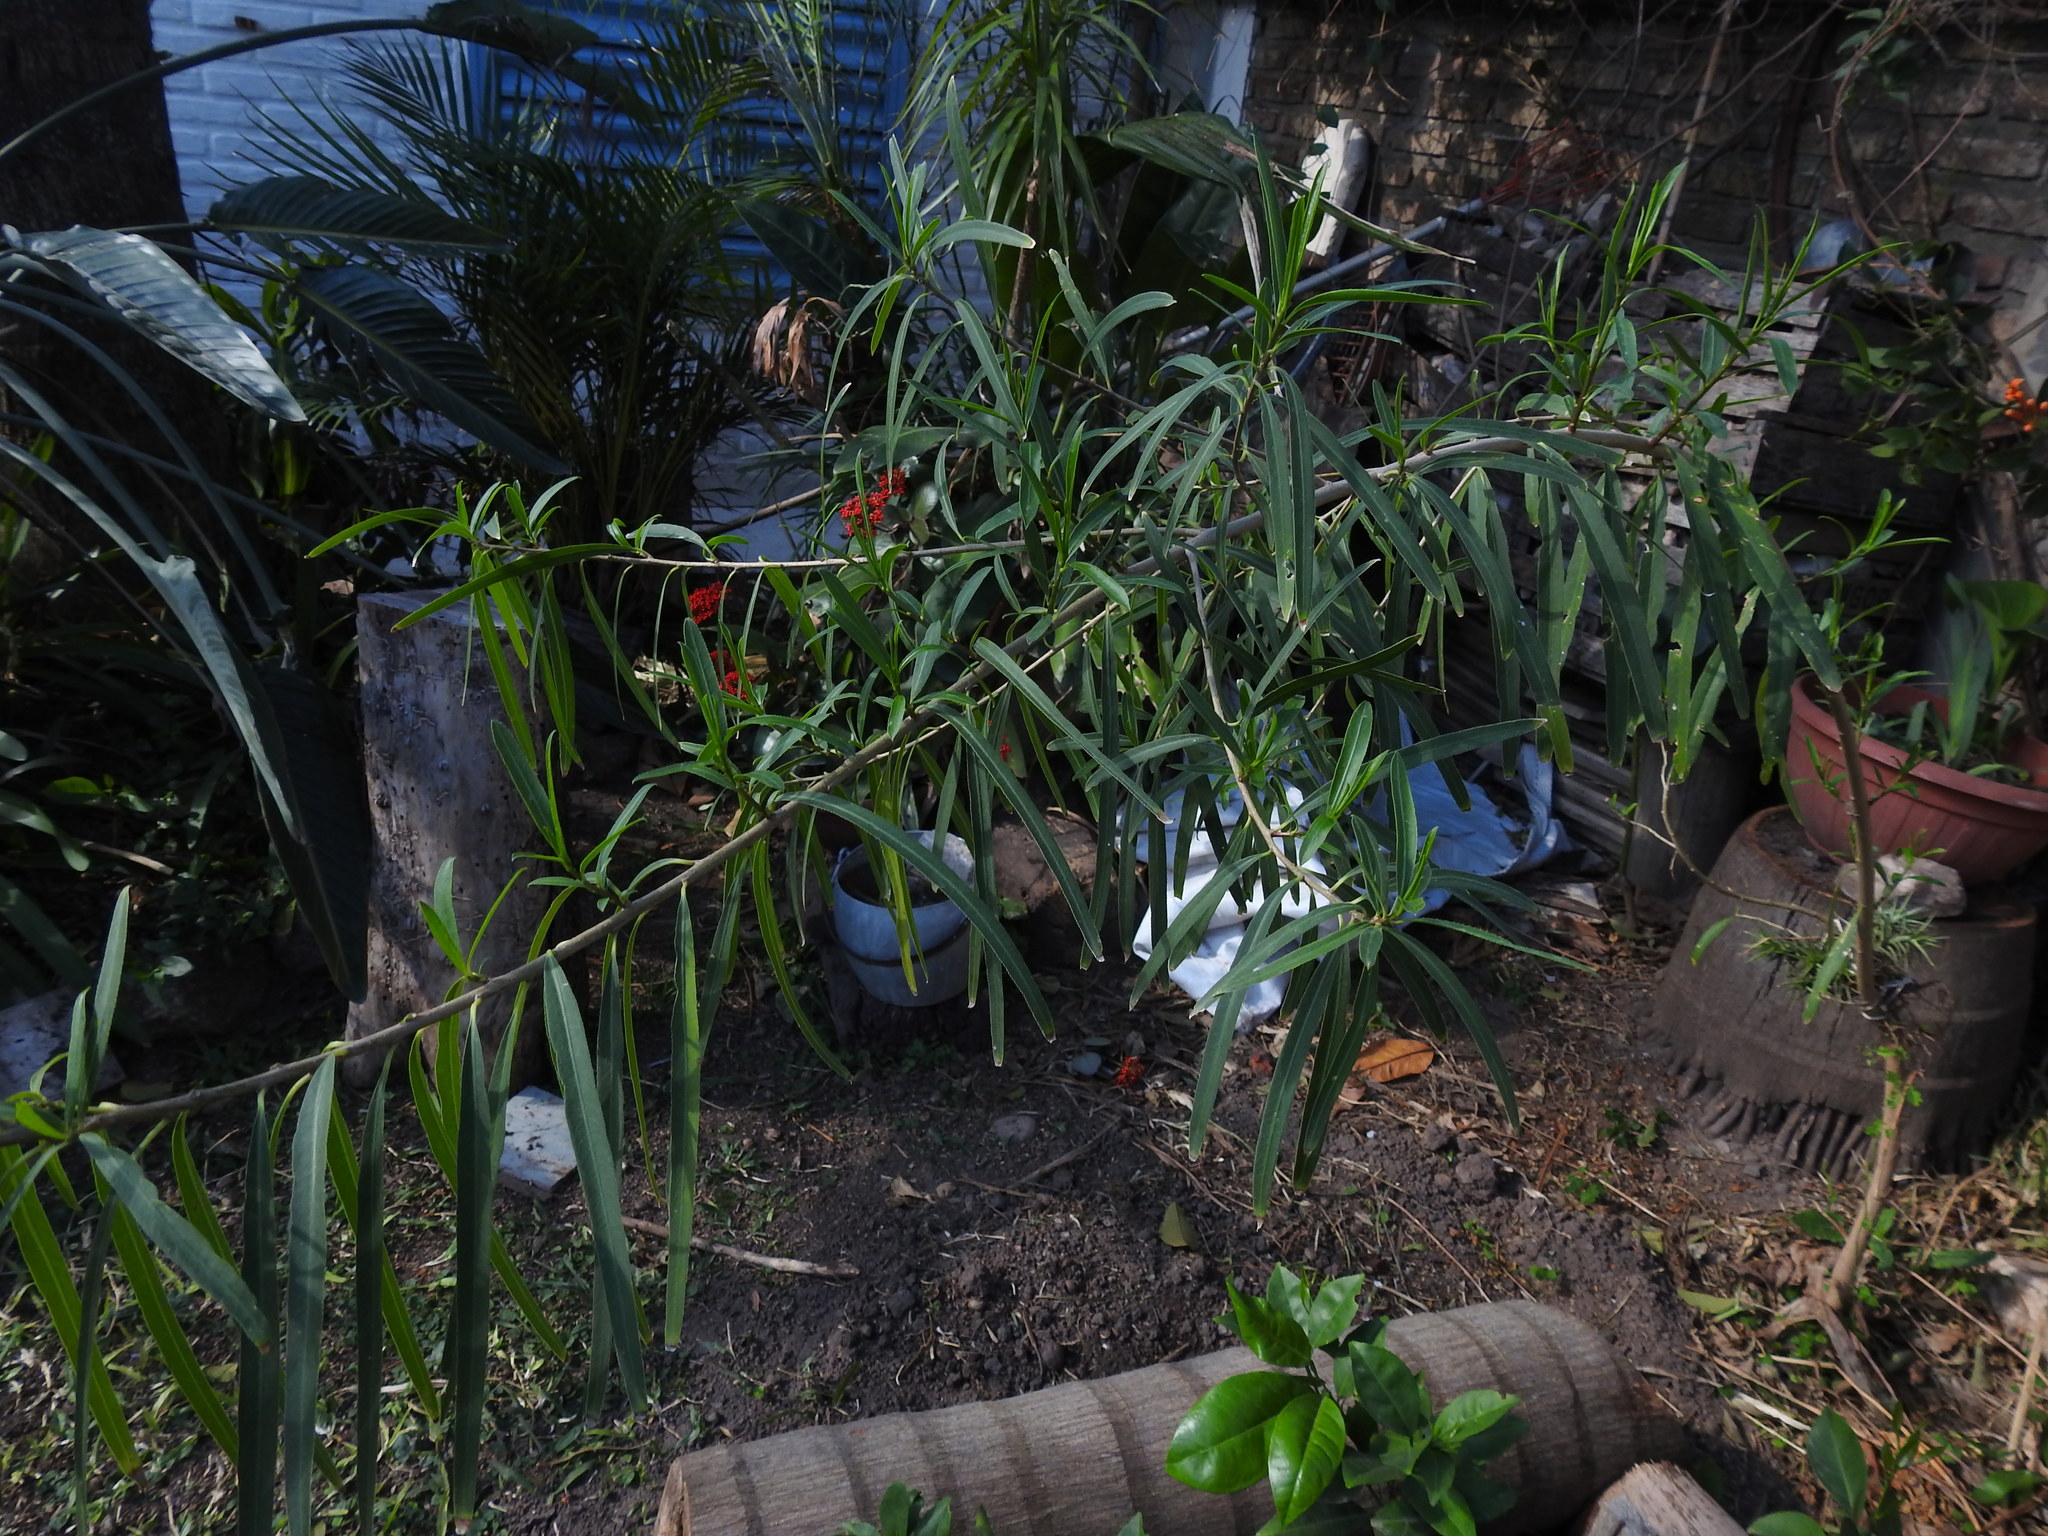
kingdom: Plantae
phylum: Tracheophyta
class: Magnoliopsida
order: Malpighiales
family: Euphorbiaceae
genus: Sapium
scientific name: Sapium haematospermum
